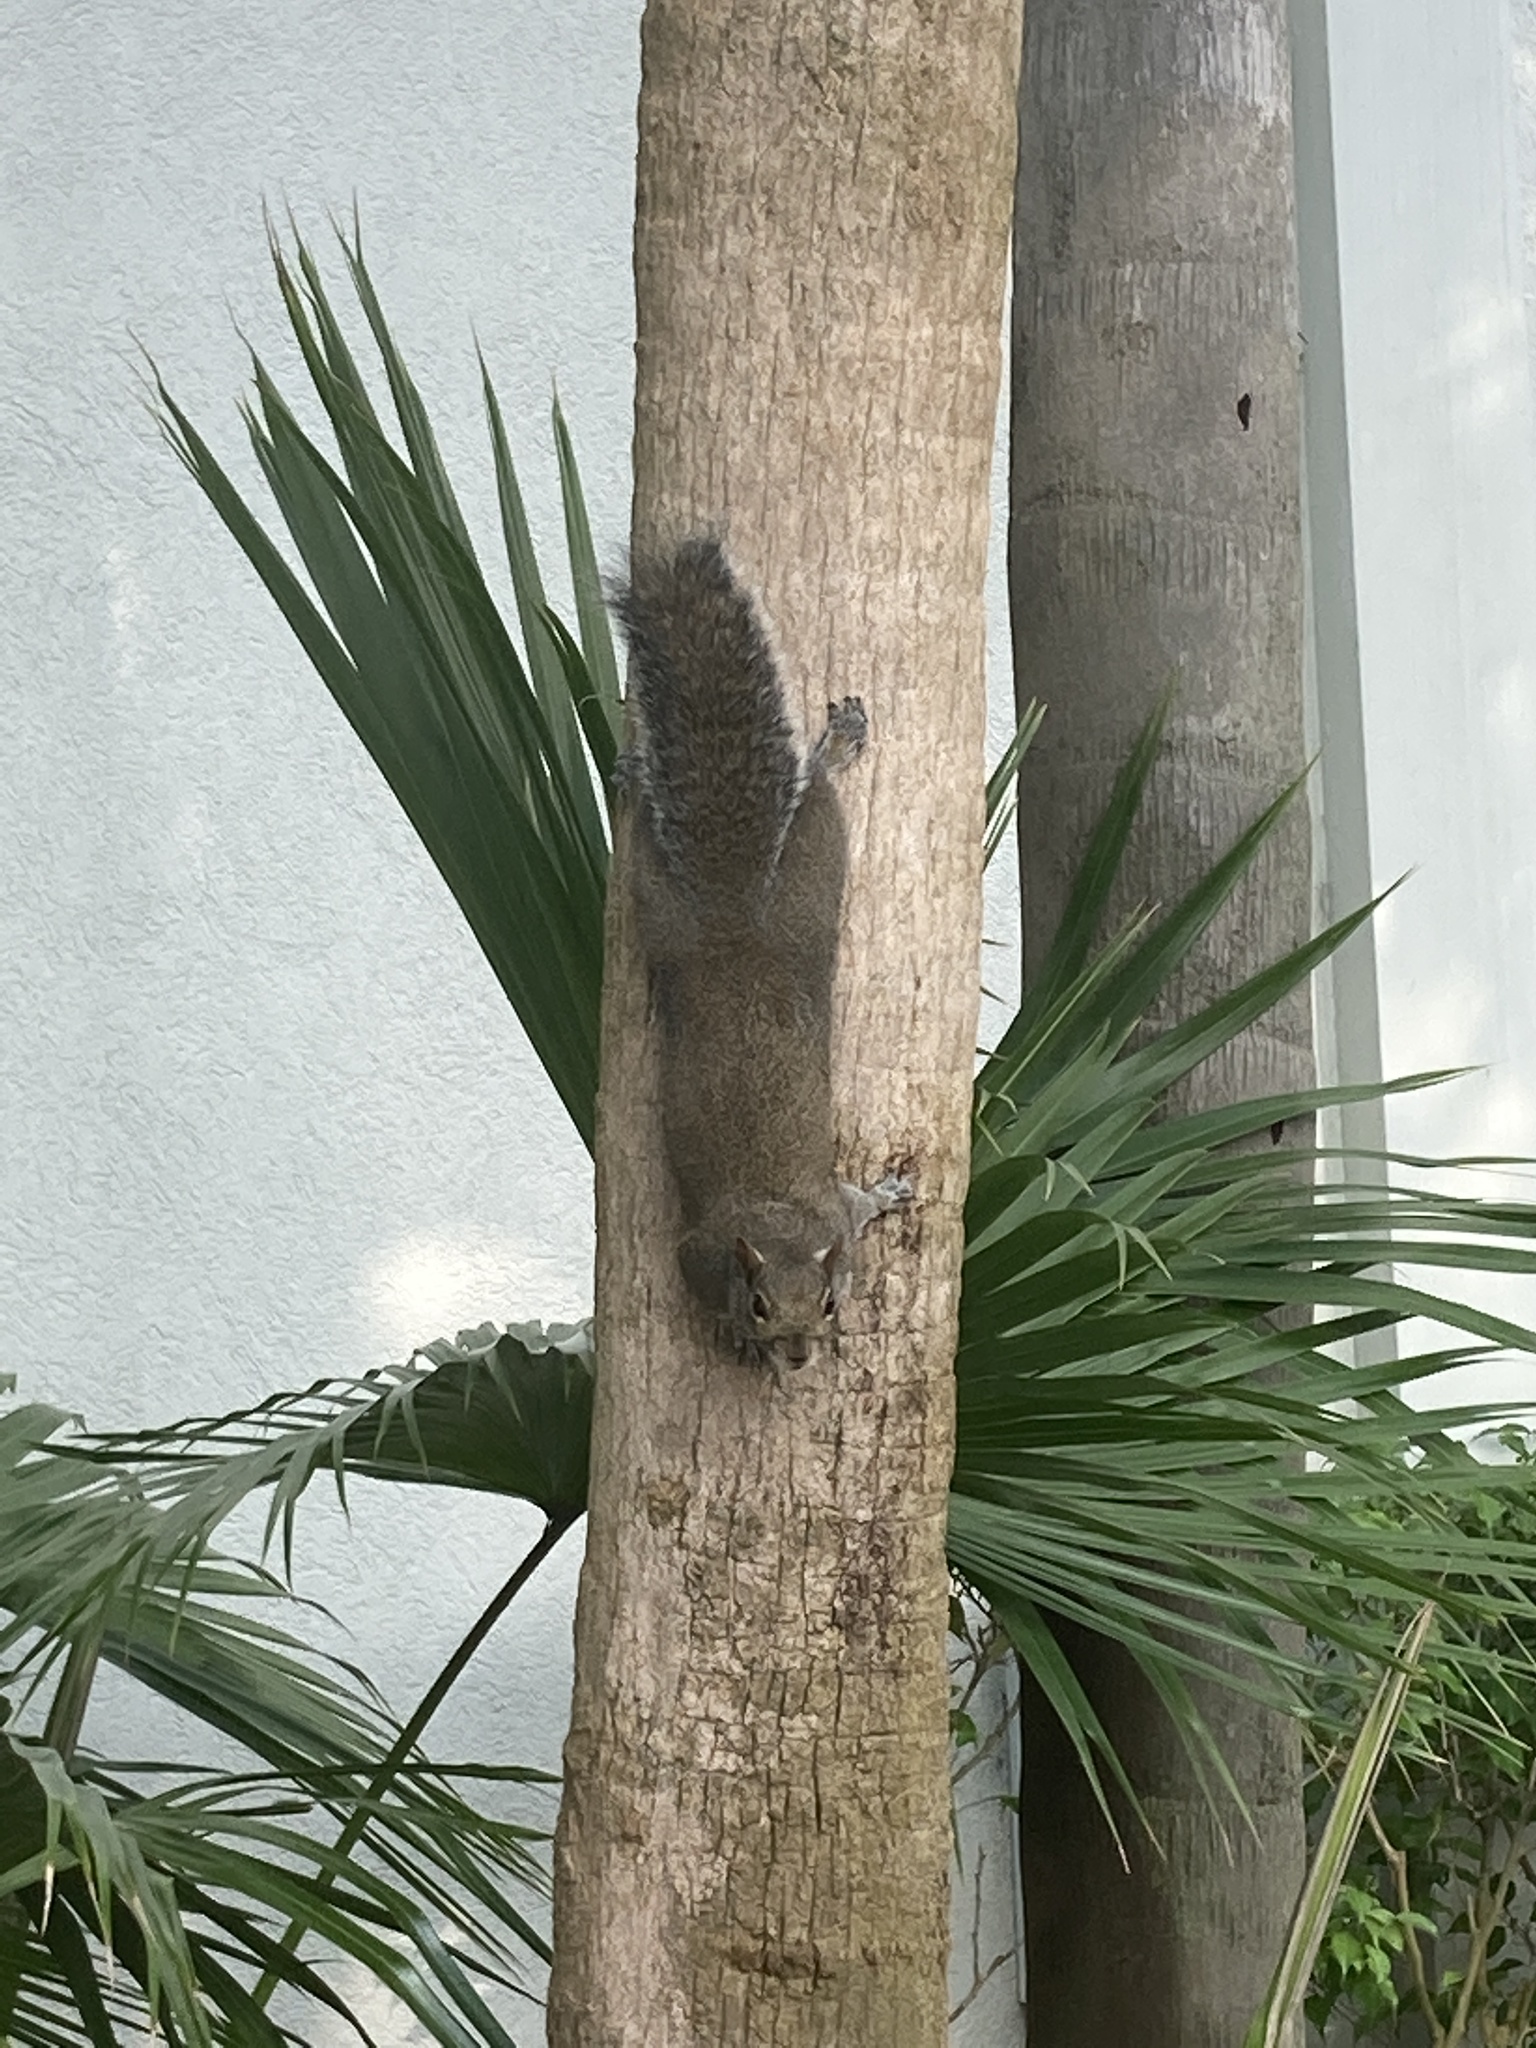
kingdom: Animalia
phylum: Chordata
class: Mammalia
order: Rodentia
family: Sciuridae
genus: Sciurus
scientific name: Sciurus carolinensis
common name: Eastern gray squirrel
